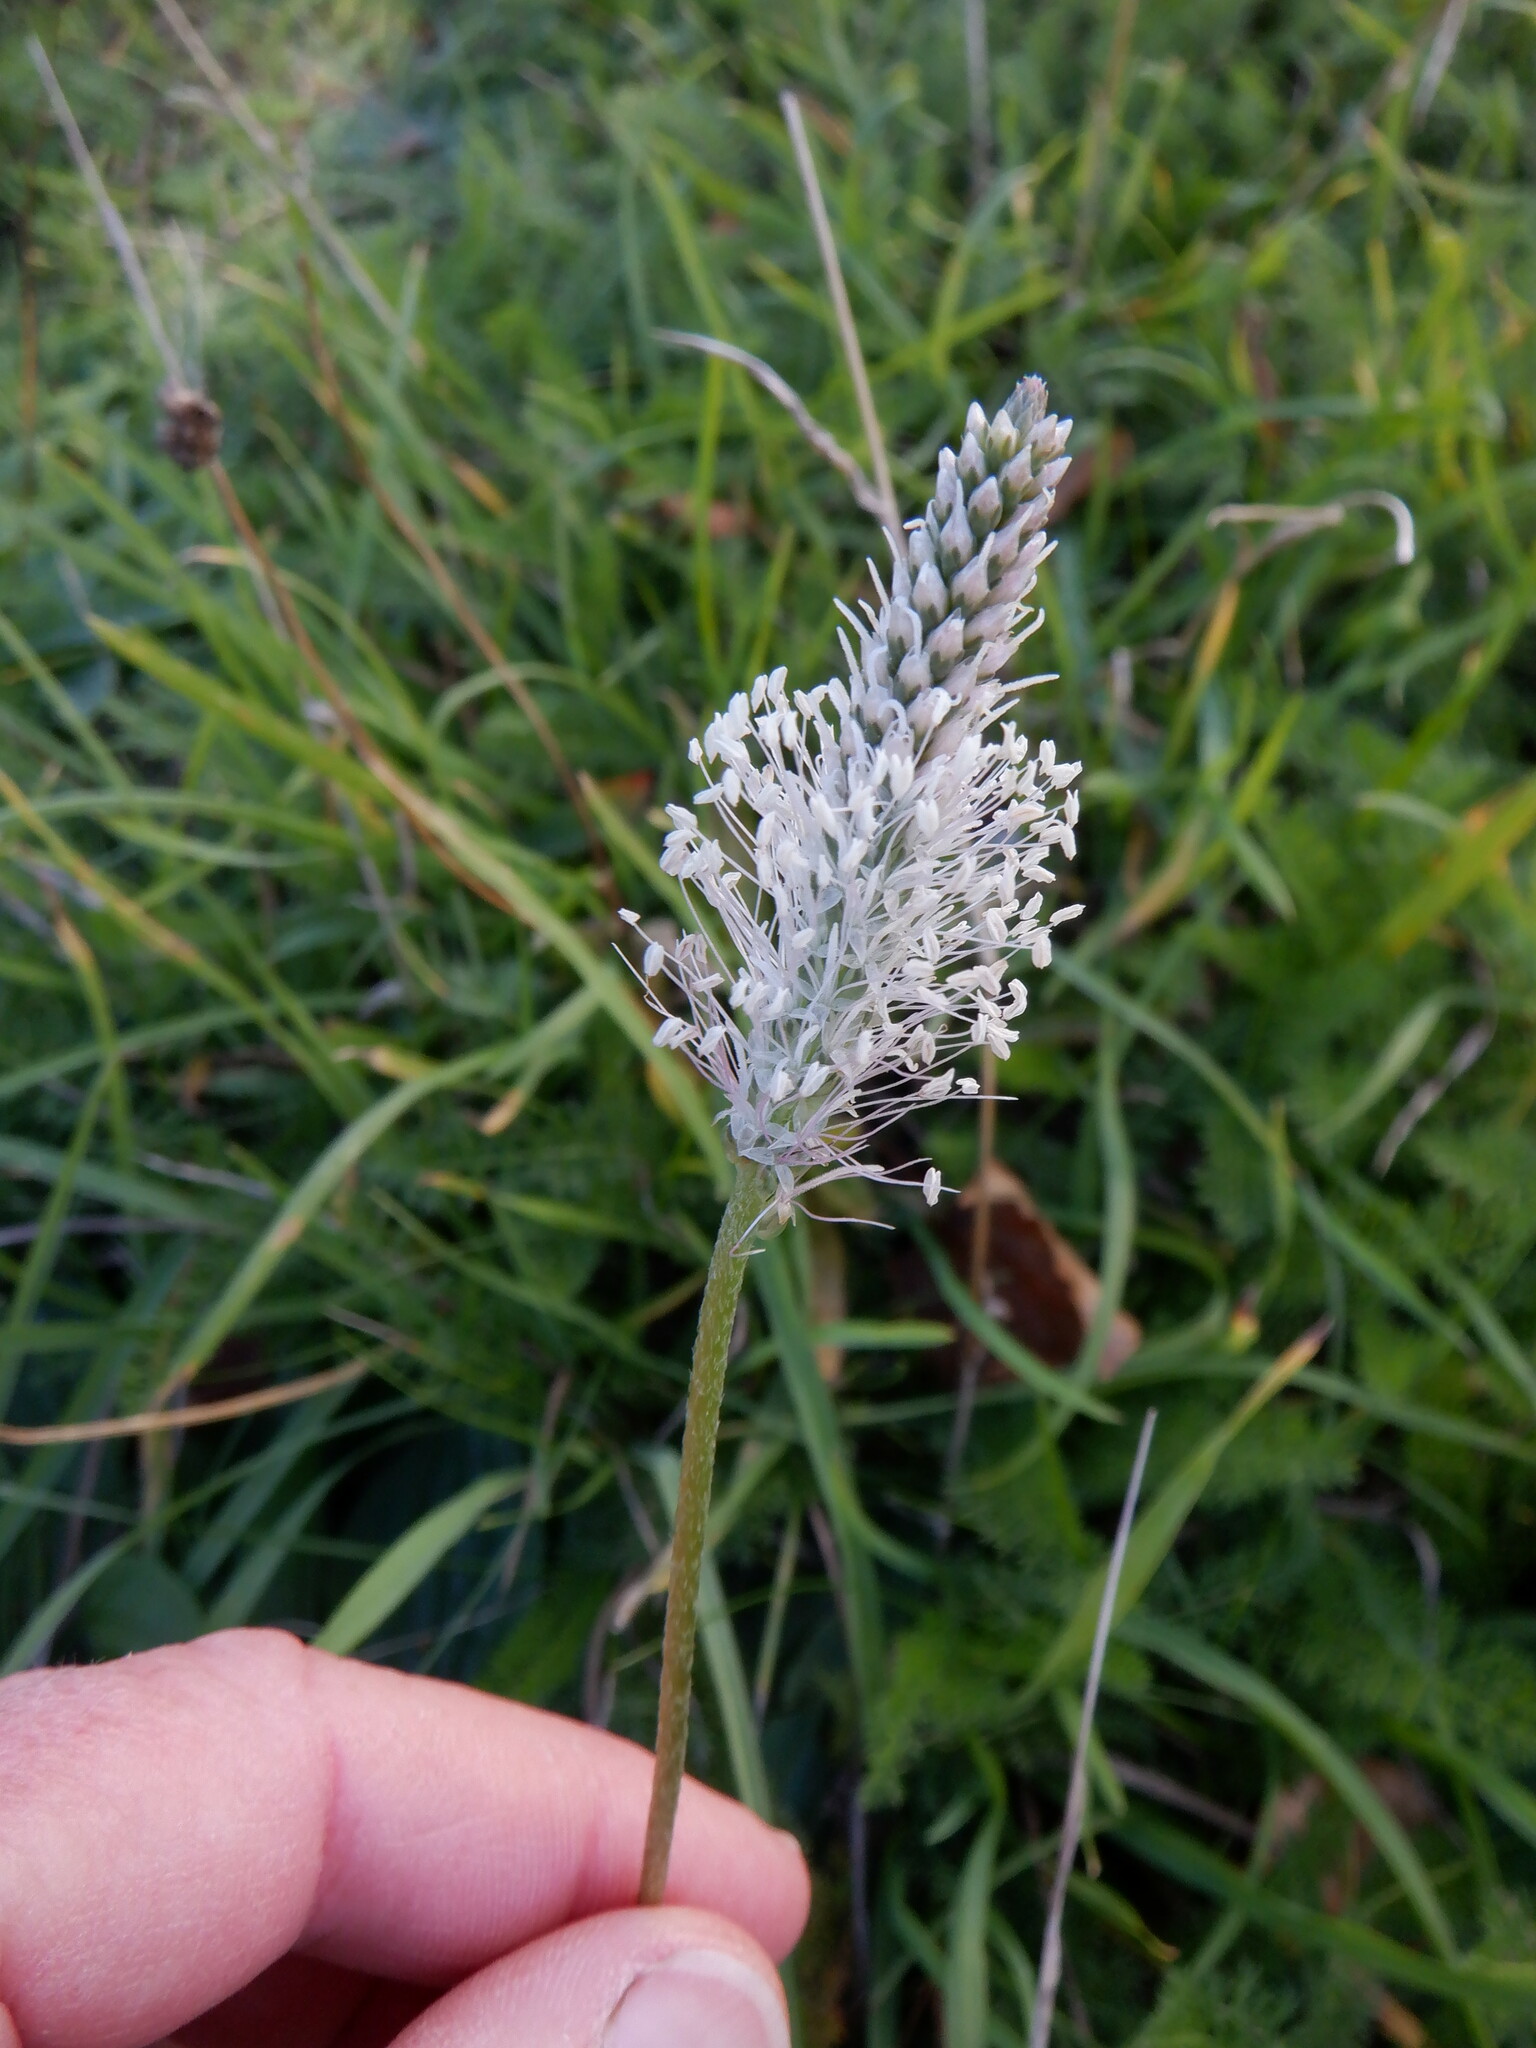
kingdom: Plantae
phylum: Tracheophyta
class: Magnoliopsida
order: Lamiales
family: Plantaginaceae
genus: Plantago
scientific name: Plantago media
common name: Hoary plantain
